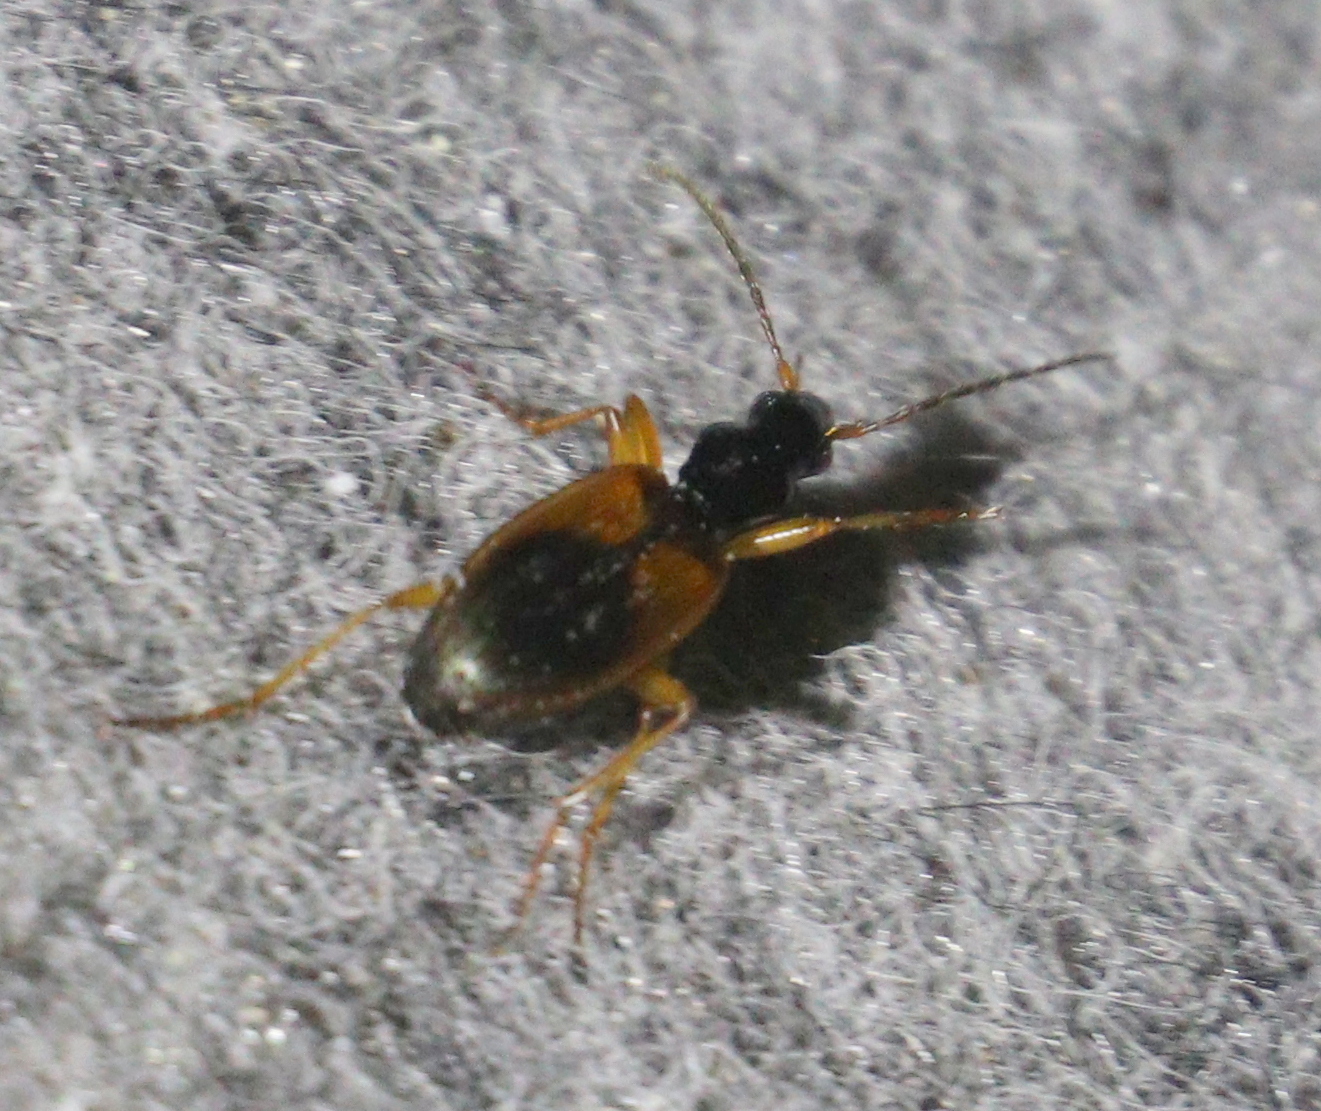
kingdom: Animalia
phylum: Arthropoda
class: Insecta
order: Coleoptera
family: Carabidae
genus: Anchomenus
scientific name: Anchomenus dorsalis
